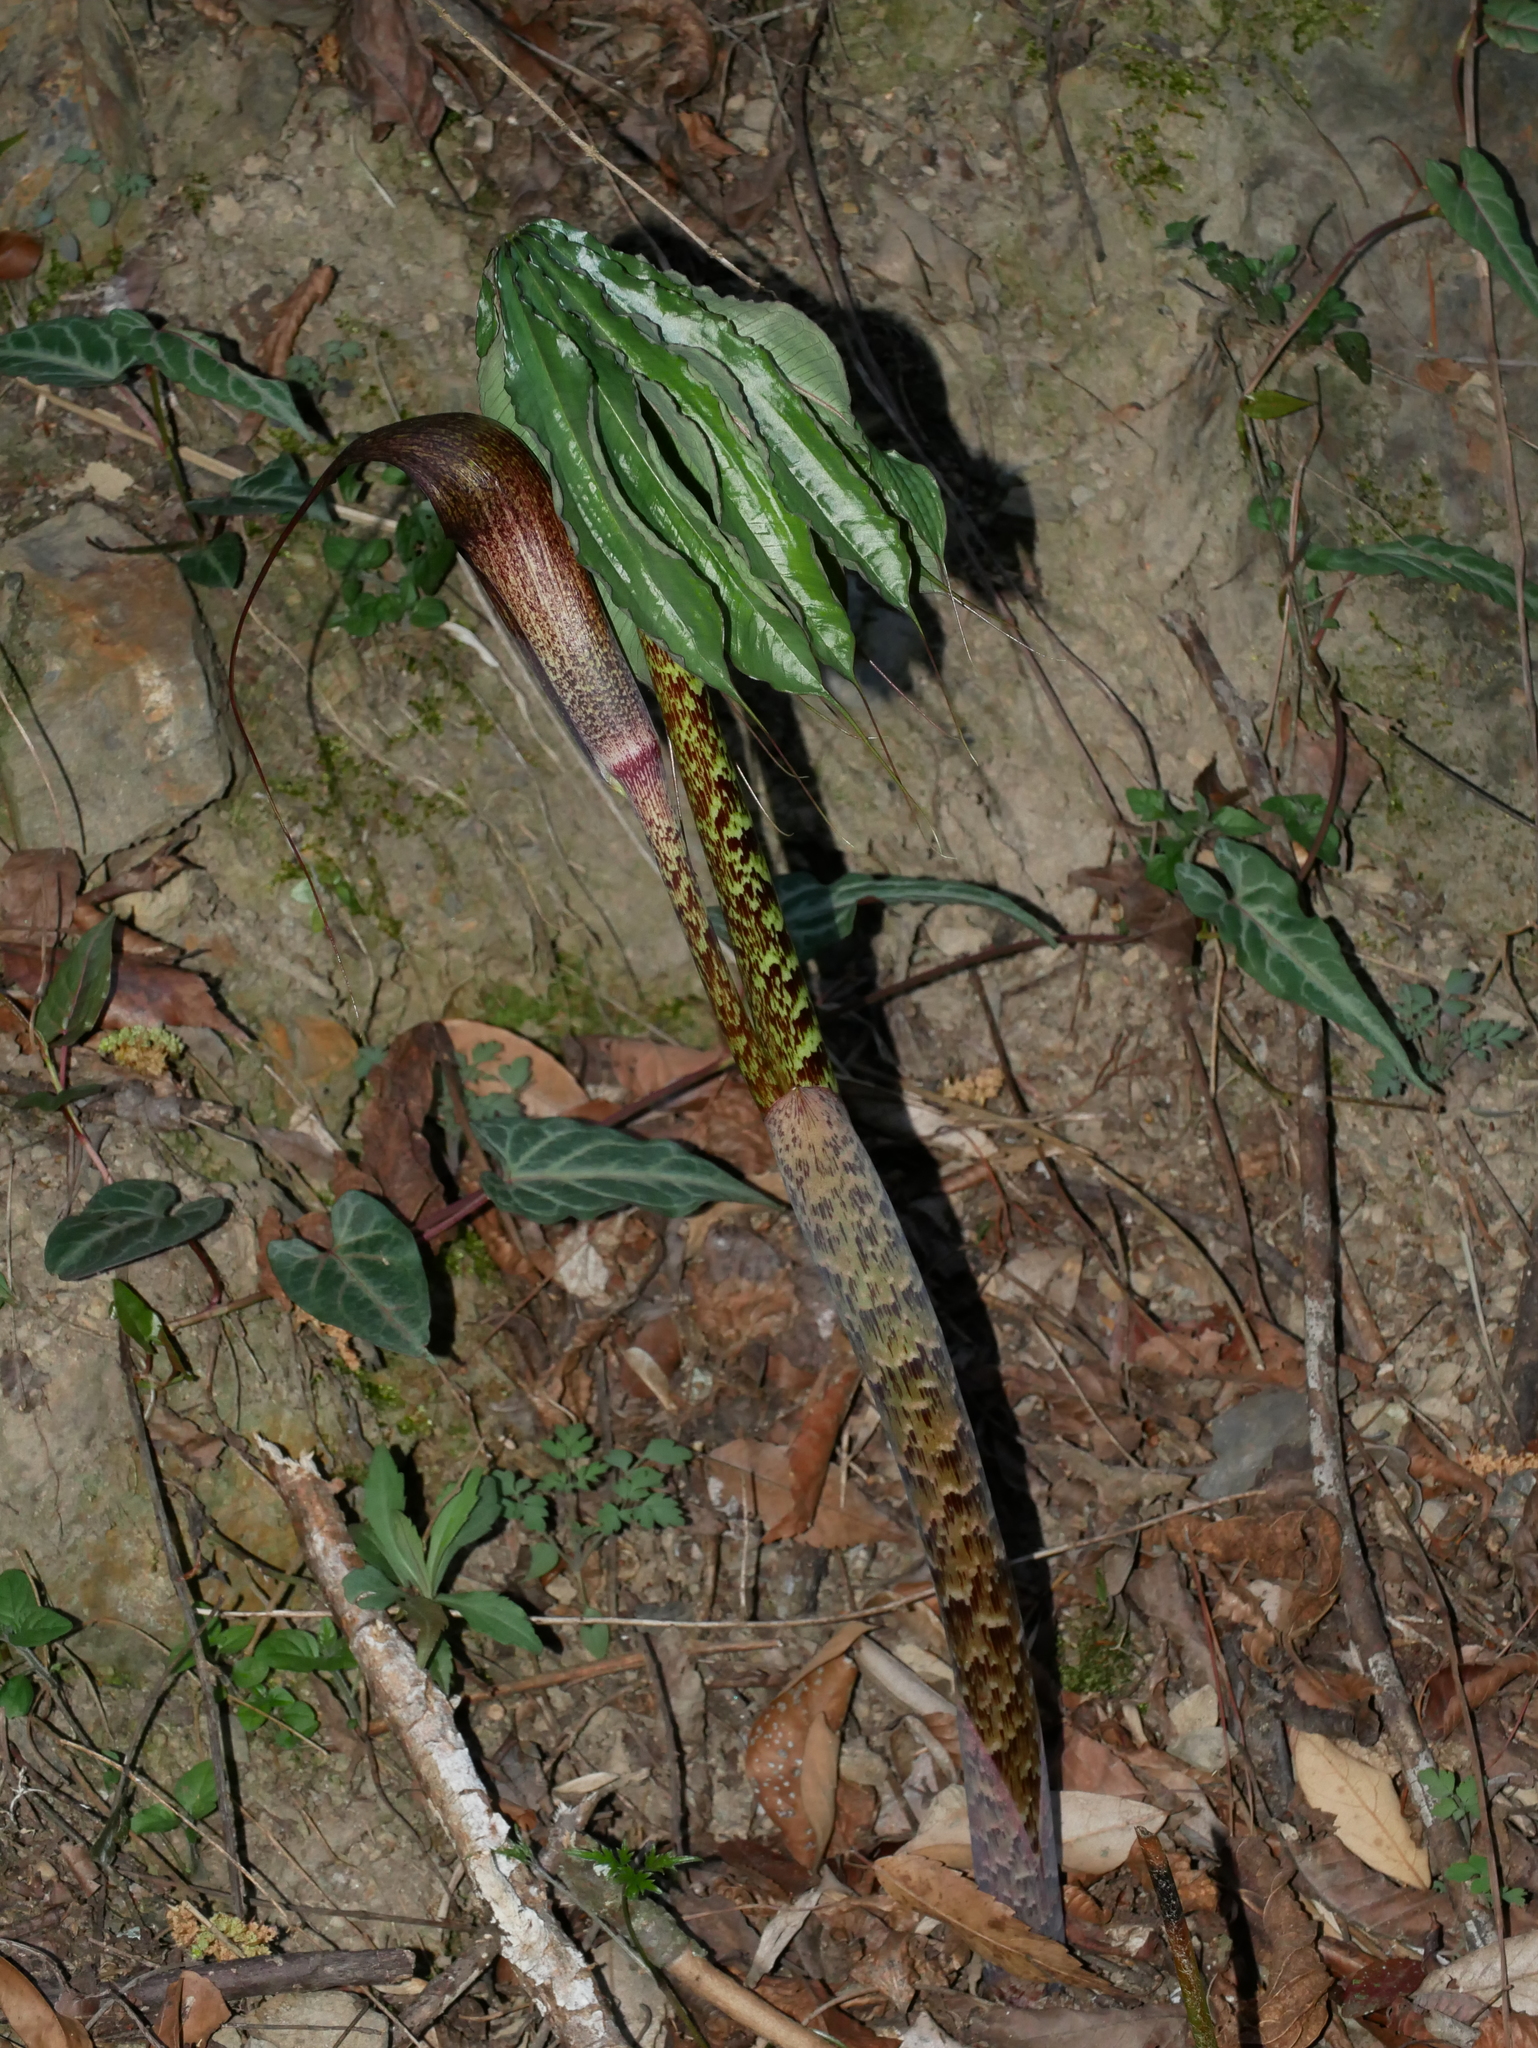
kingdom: Plantae
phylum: Tracheophyta
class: Liliopsida
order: Alismatales
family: Araceae
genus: Arisaema
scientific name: Arisaema taiwanense
